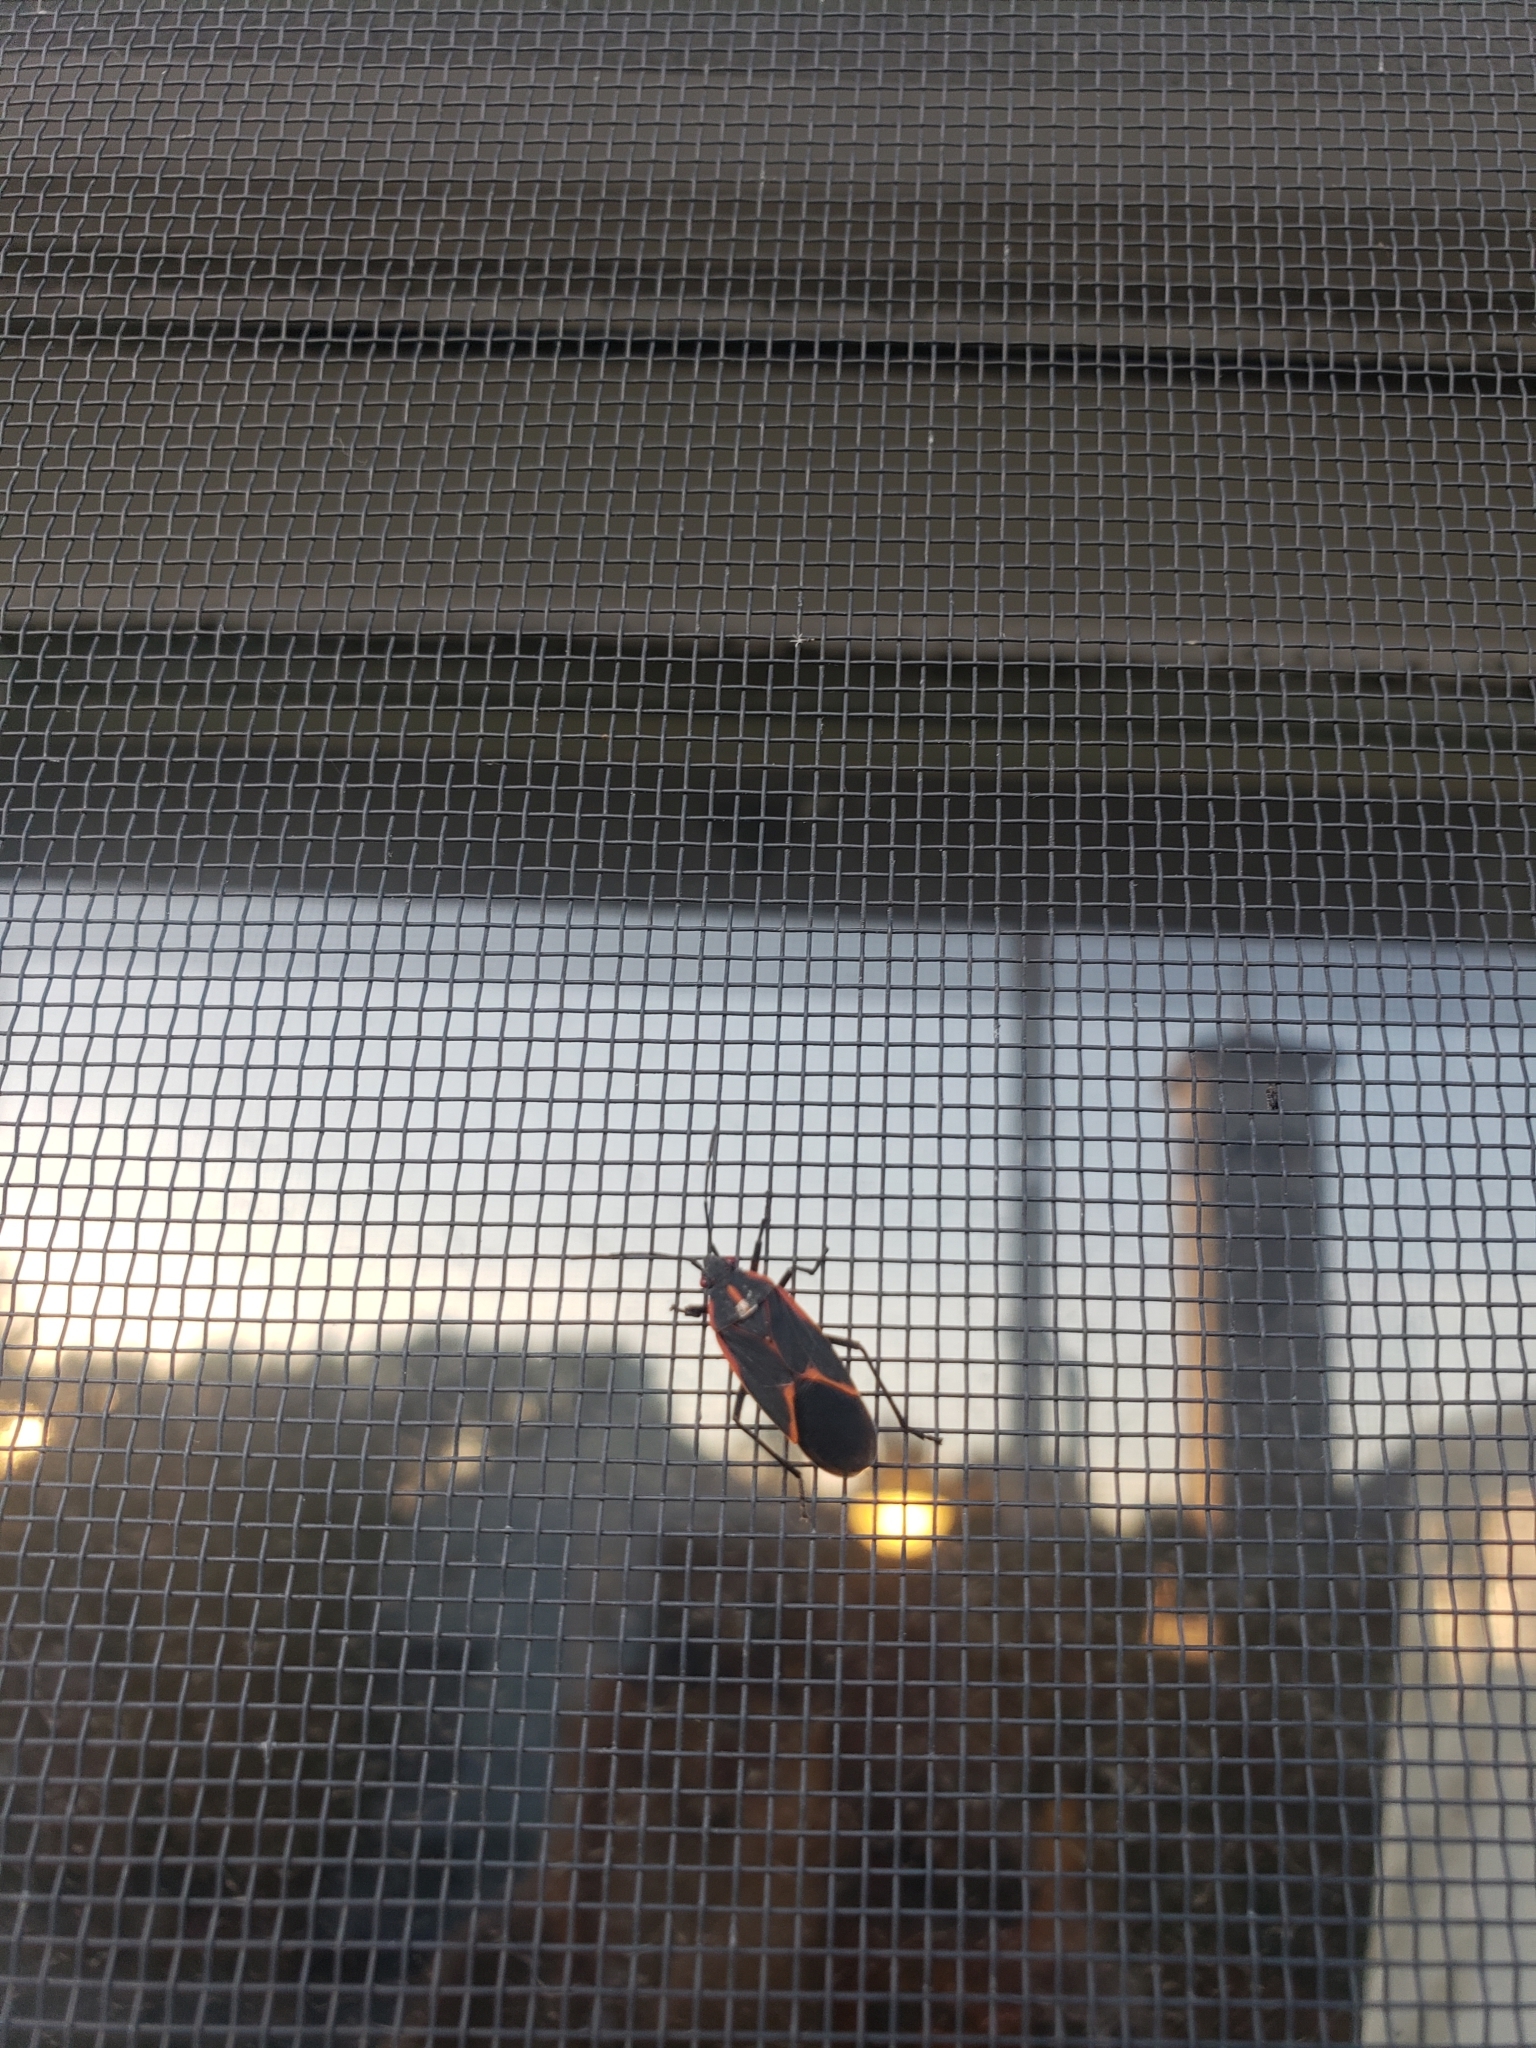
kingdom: Animalia
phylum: Arthropoda
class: Insecta
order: Hemiptera
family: Rhopalidae
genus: Boisea
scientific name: Boisea trivittata
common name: Boxelder bug
